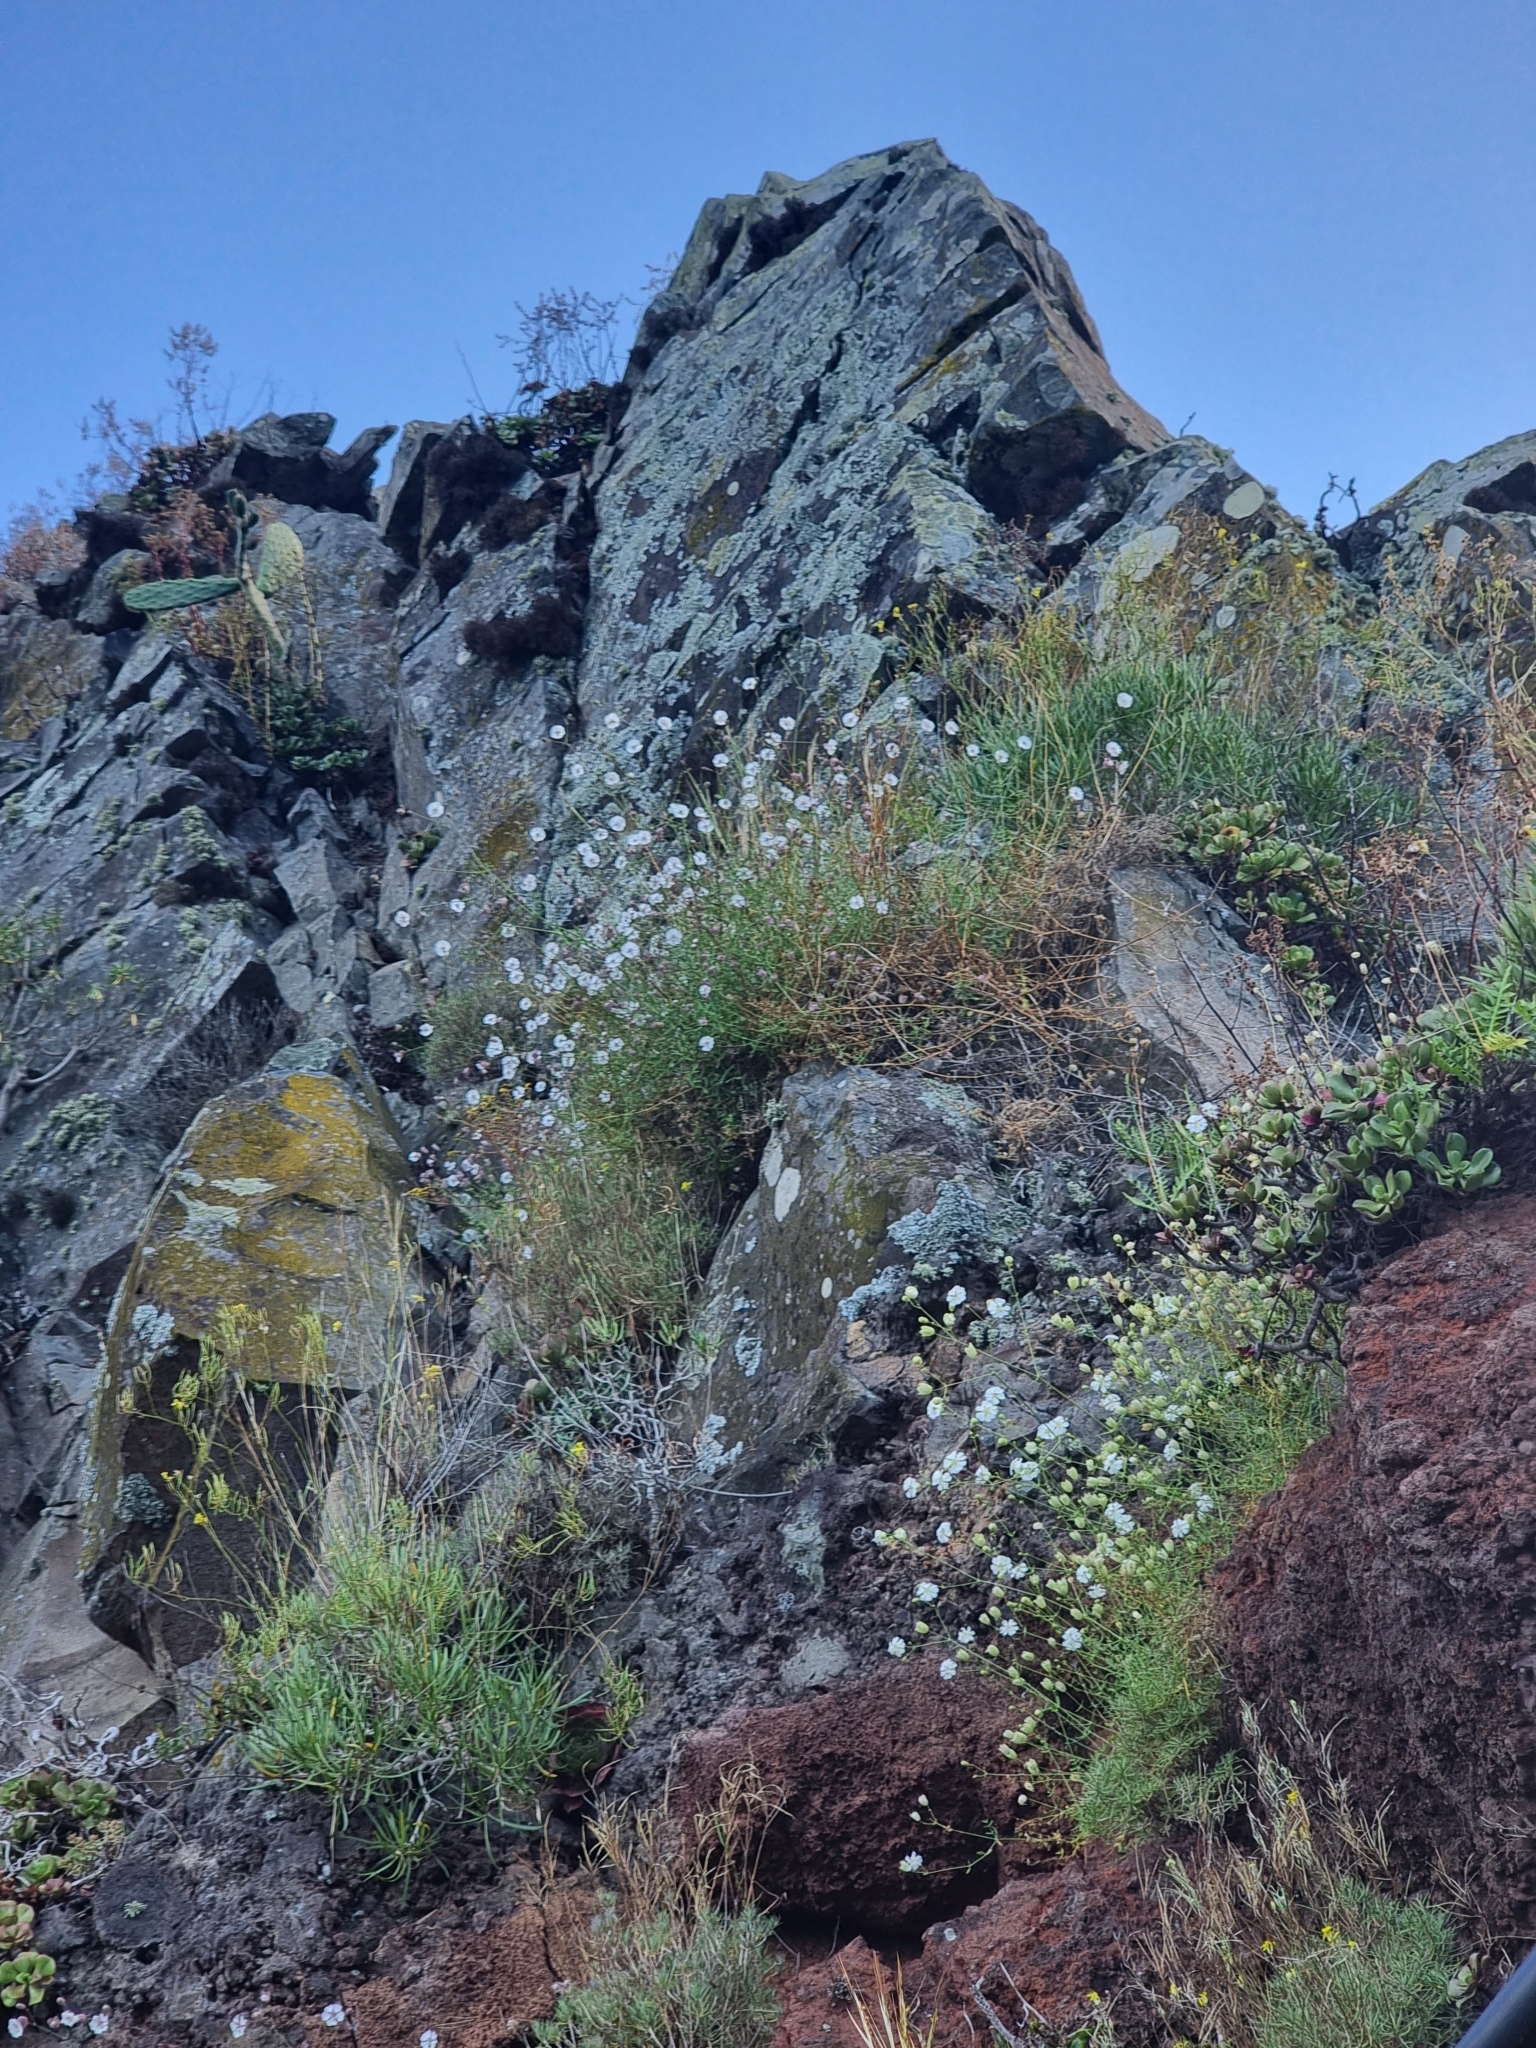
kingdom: Plantae
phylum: Tracheophyta
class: Magnoliopsida
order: Caryophyllales
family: Caryophyllaceae
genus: Silene
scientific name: Silene vulgaris
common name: Bladder campion
